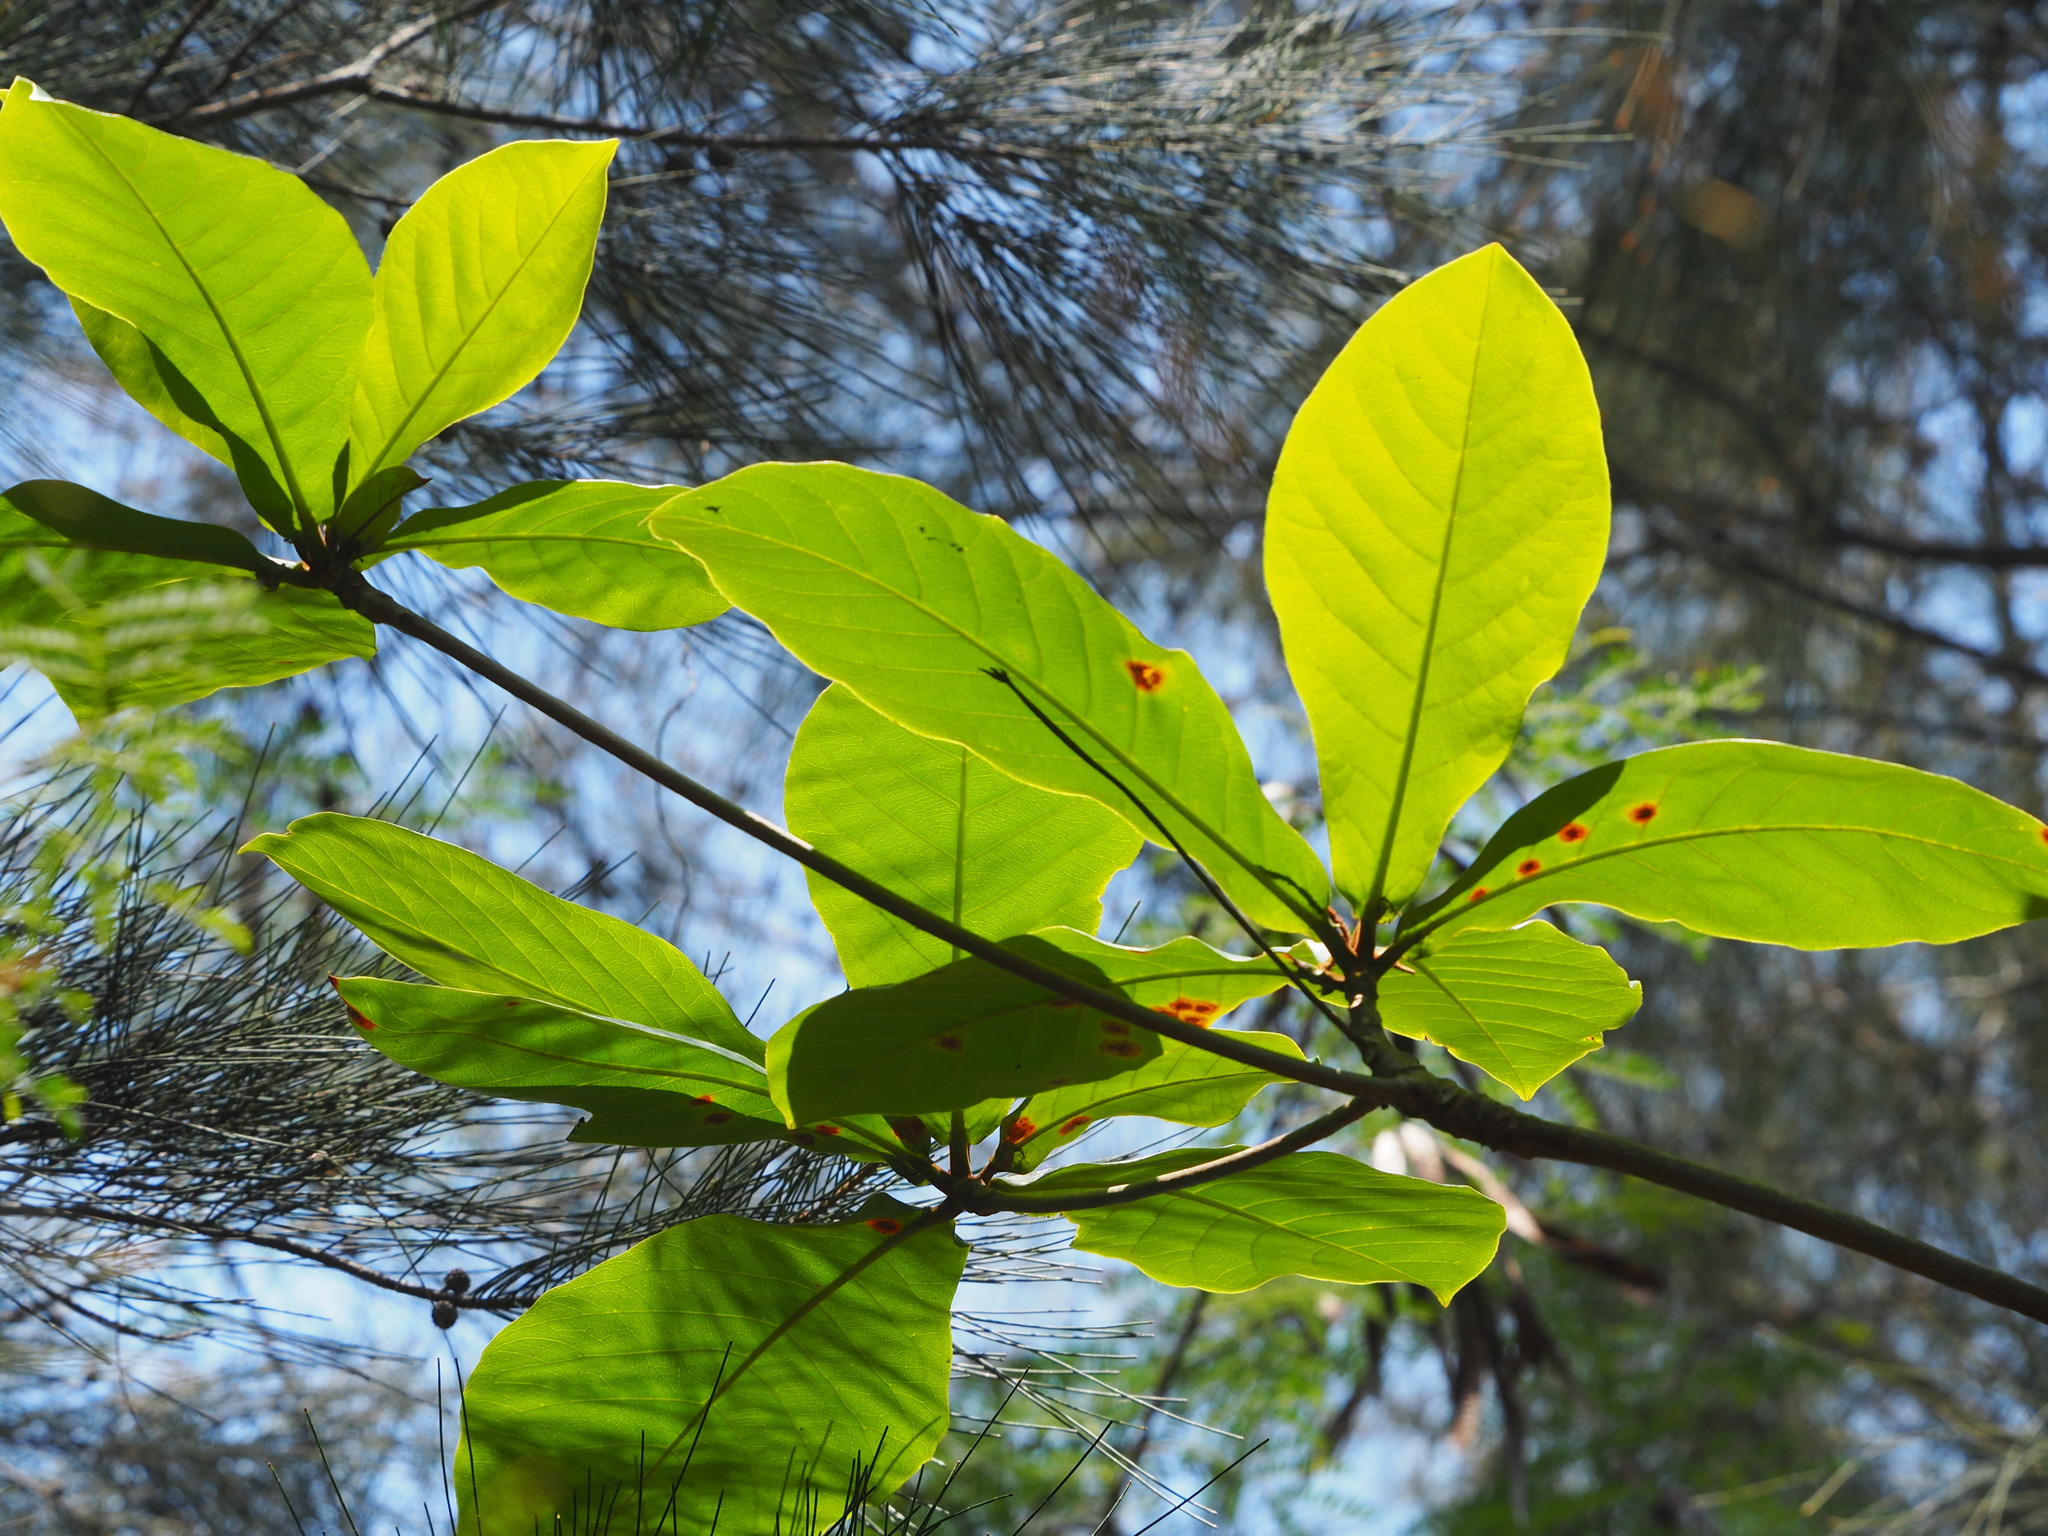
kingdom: Plantae
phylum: Tracheophyta
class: Magnoliopsida
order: Myrtales
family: Combretaceae
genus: Terminalia
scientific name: Terminalia catappa
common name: Tropical almond
